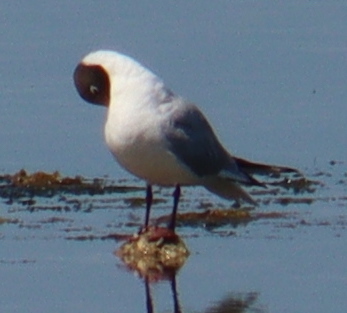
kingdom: Animalia
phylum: Chordata
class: Aves
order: Charadriiformes
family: Laridae
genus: Chroicocephalus
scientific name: Chroicocephalus ridibundus
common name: Black-headed gull
